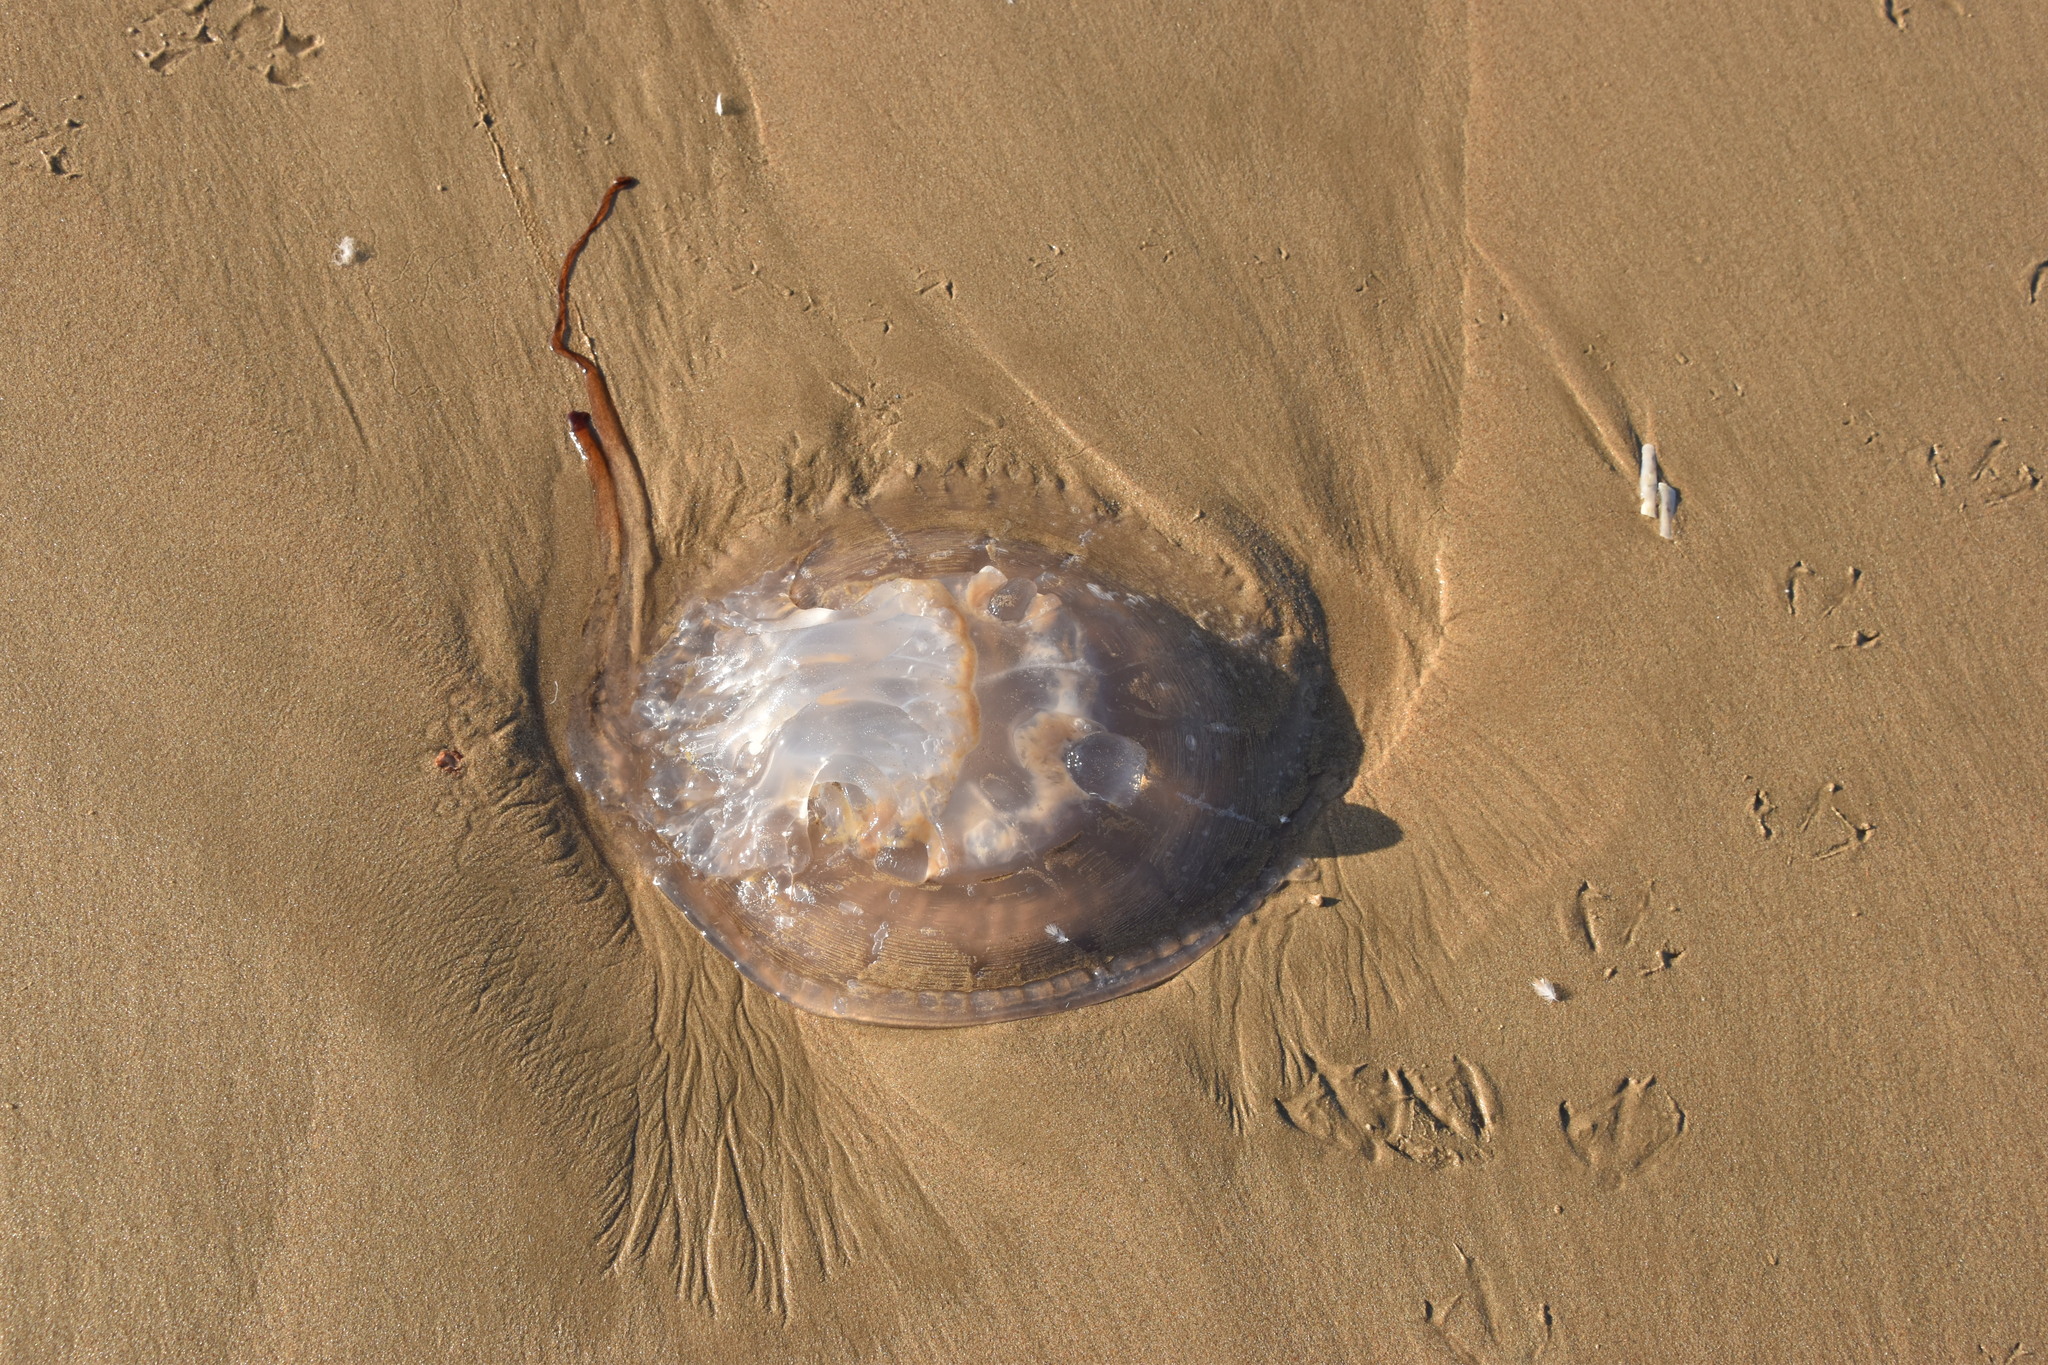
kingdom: Animalia
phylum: Cnidaria
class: Scyphozoa
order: Rhizostomeae
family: Rhizostomatidae
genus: Rhizostoma
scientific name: Rhizostoma luteum
